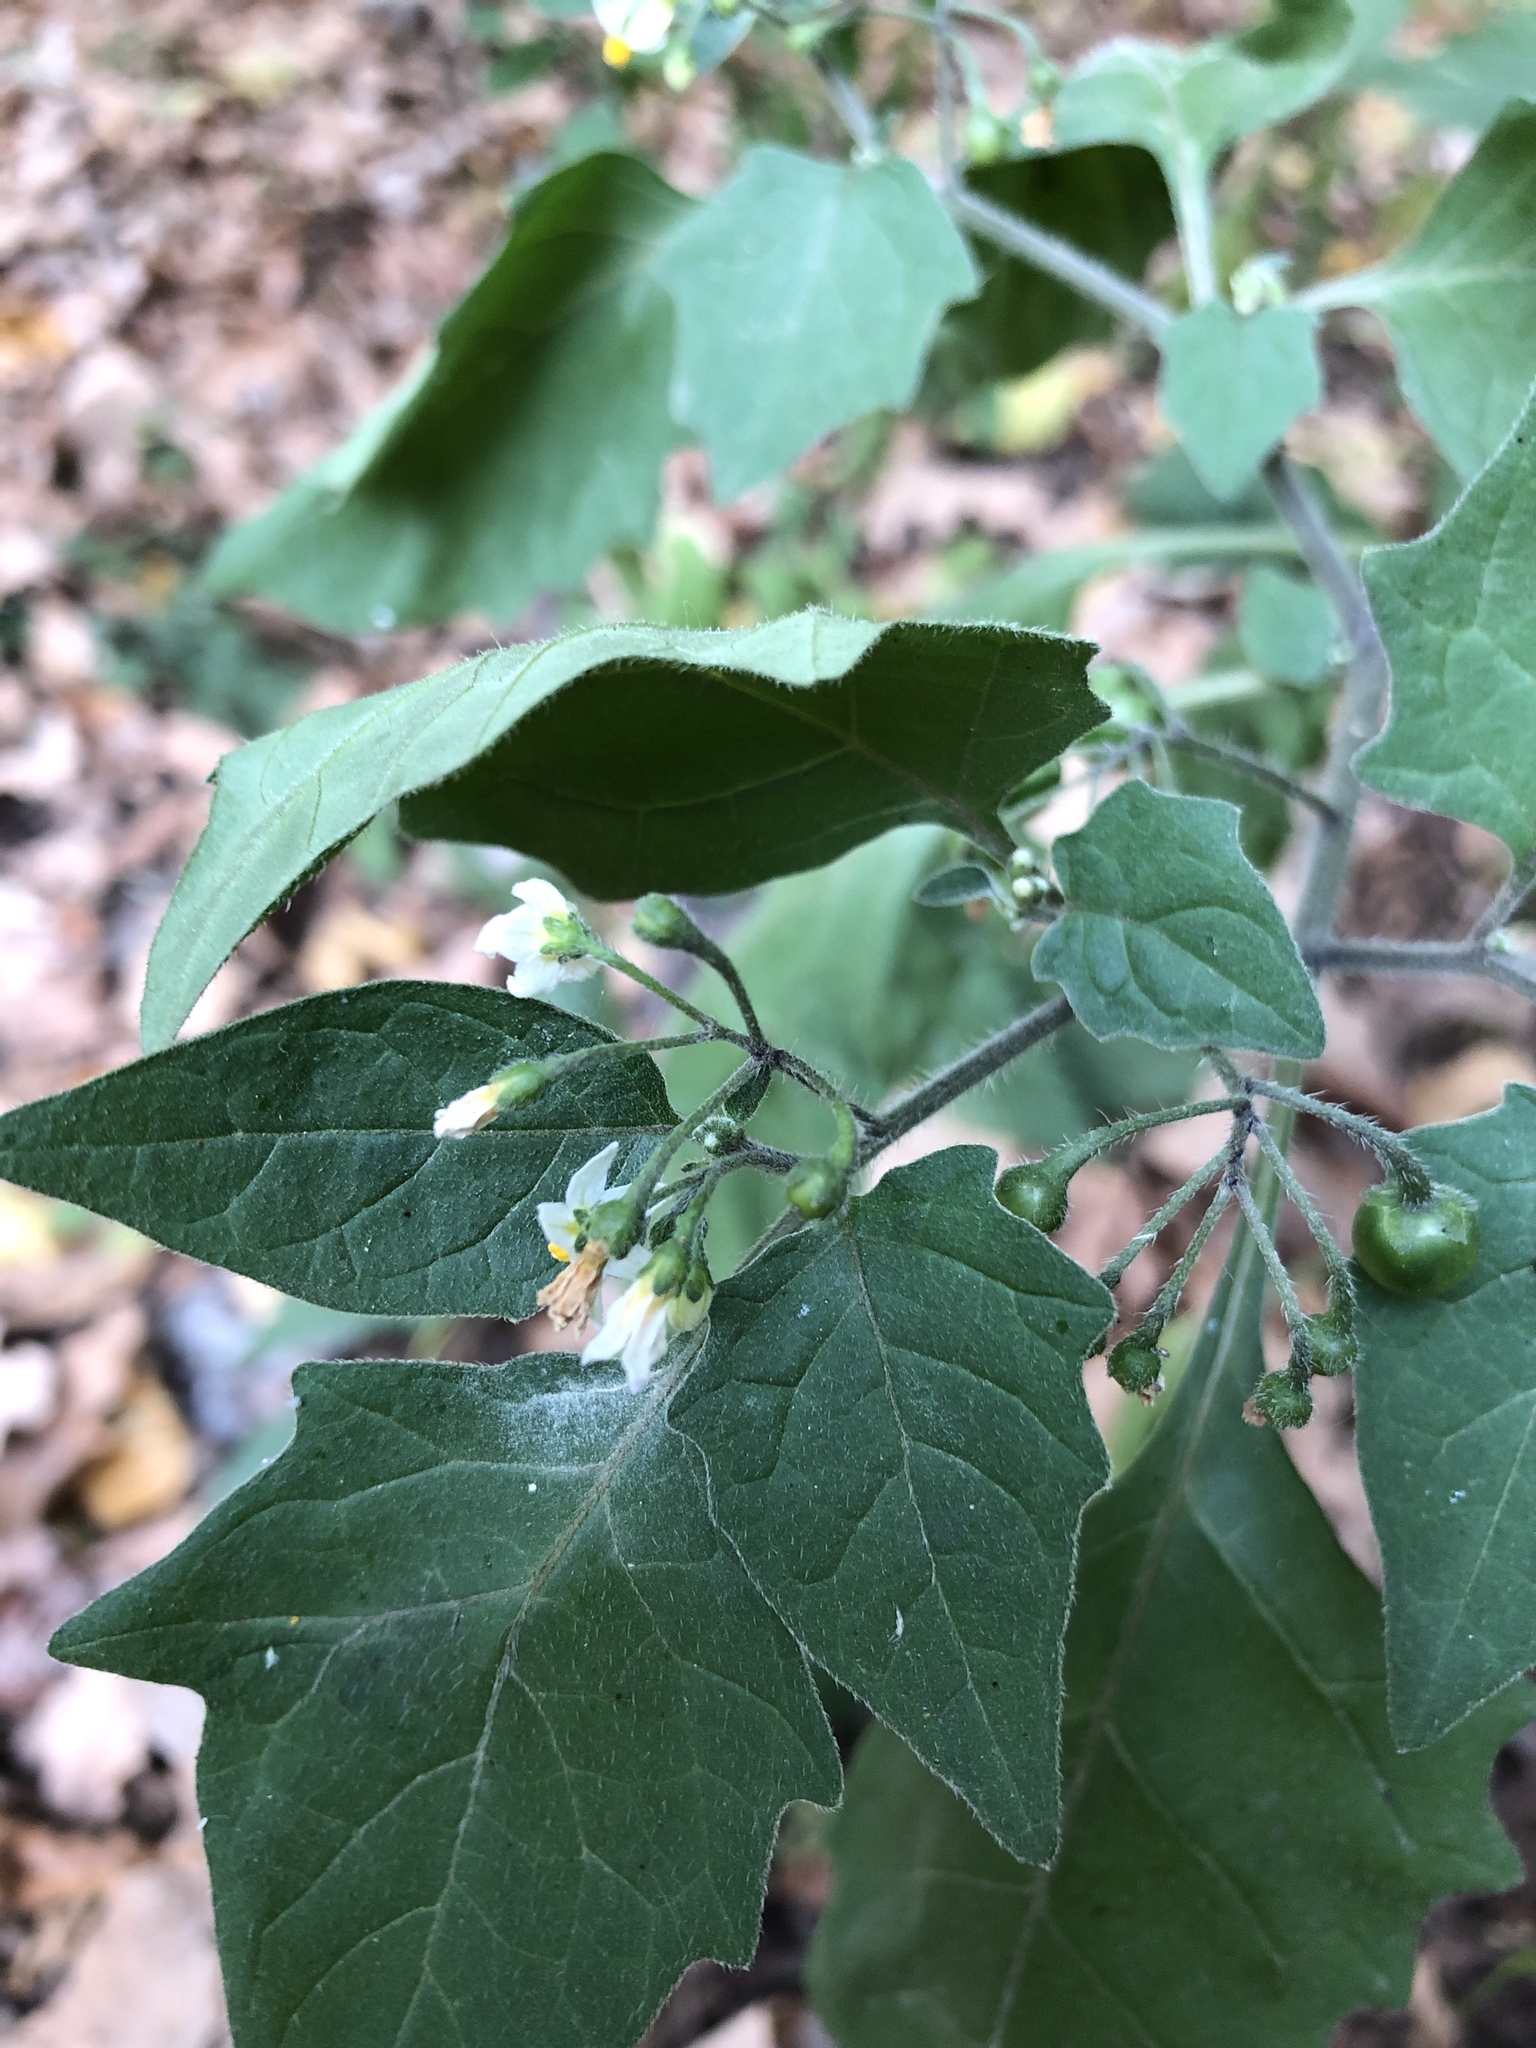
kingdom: Plantae
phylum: Tracheophyta
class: Magnoliopsida
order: Solanales
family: Solanaceae
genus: Solanum
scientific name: Solanum nigrum
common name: Black nightshade
